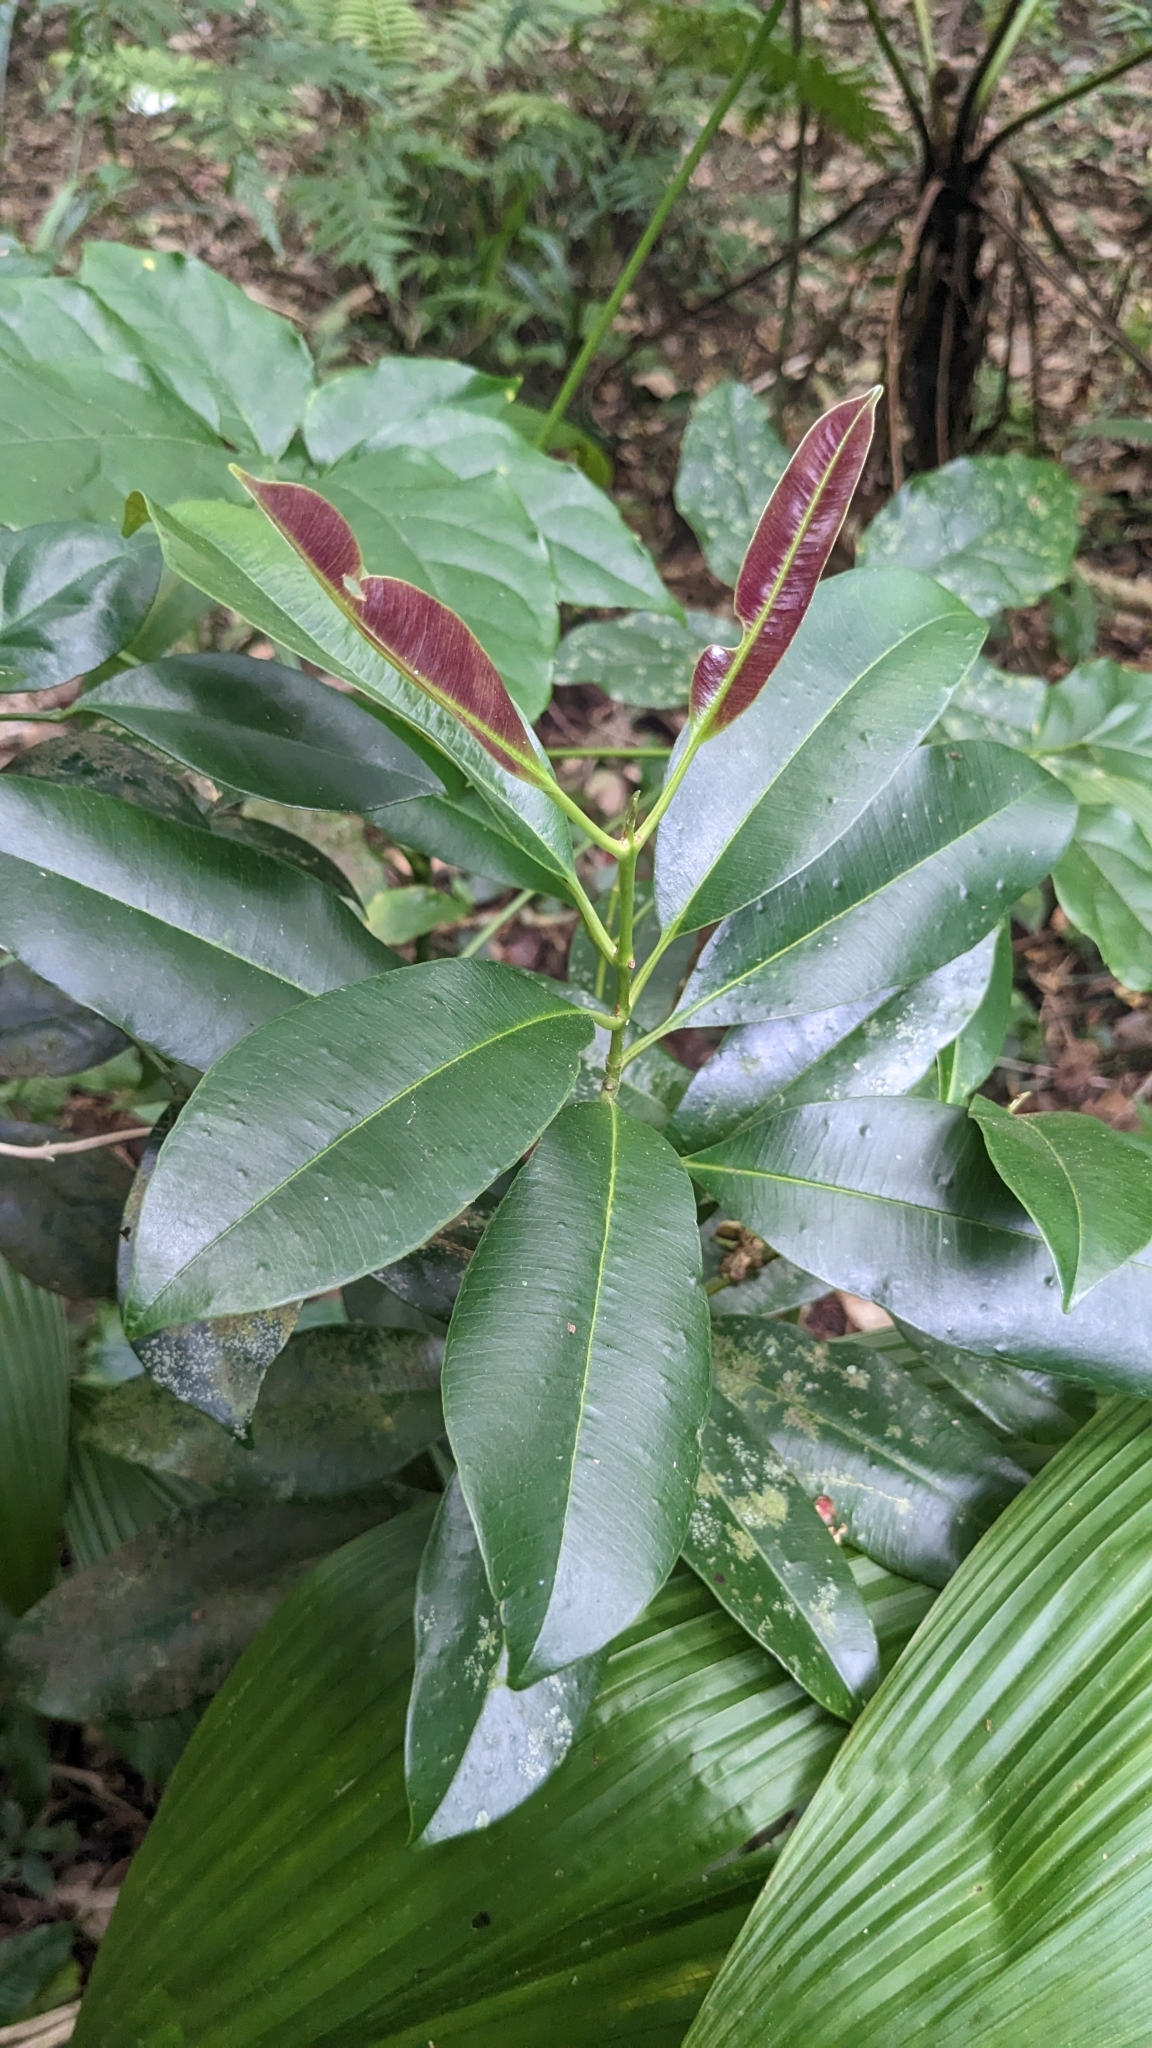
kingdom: Plantae
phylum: Tracheophyta
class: Magnoliopsida
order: Myrtales
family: Myrtaceae
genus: Syzygium
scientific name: Syzygium densinervium
